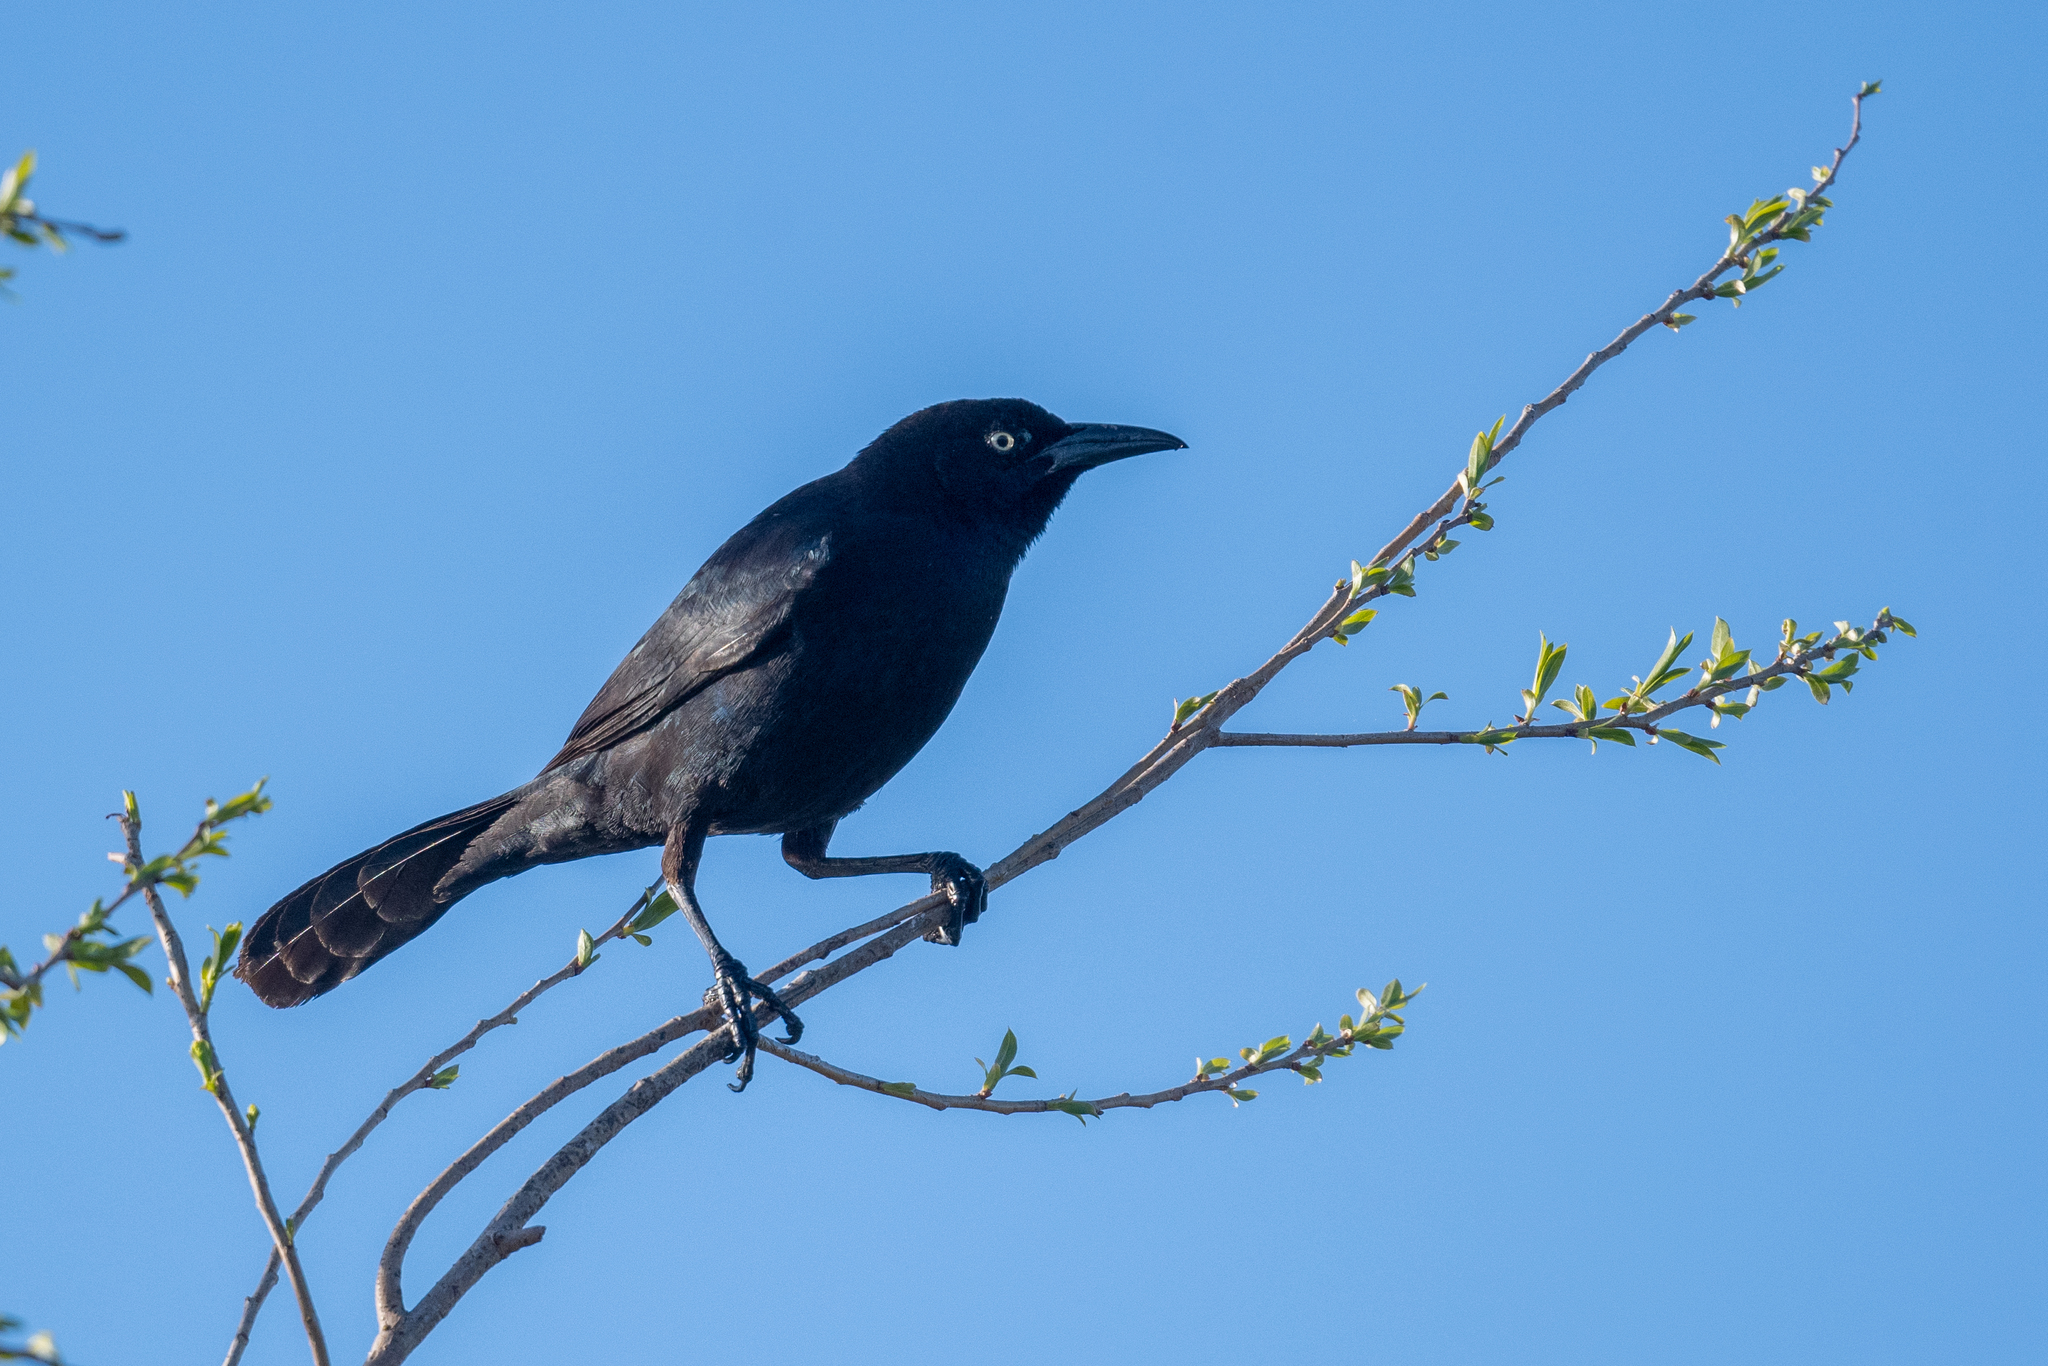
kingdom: Animalia
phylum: Chordata
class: Aves
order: Passeriformes
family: Icteridae
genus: Quiscalus
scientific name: Quiscalus mexicanus
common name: Great-tailed grackle
